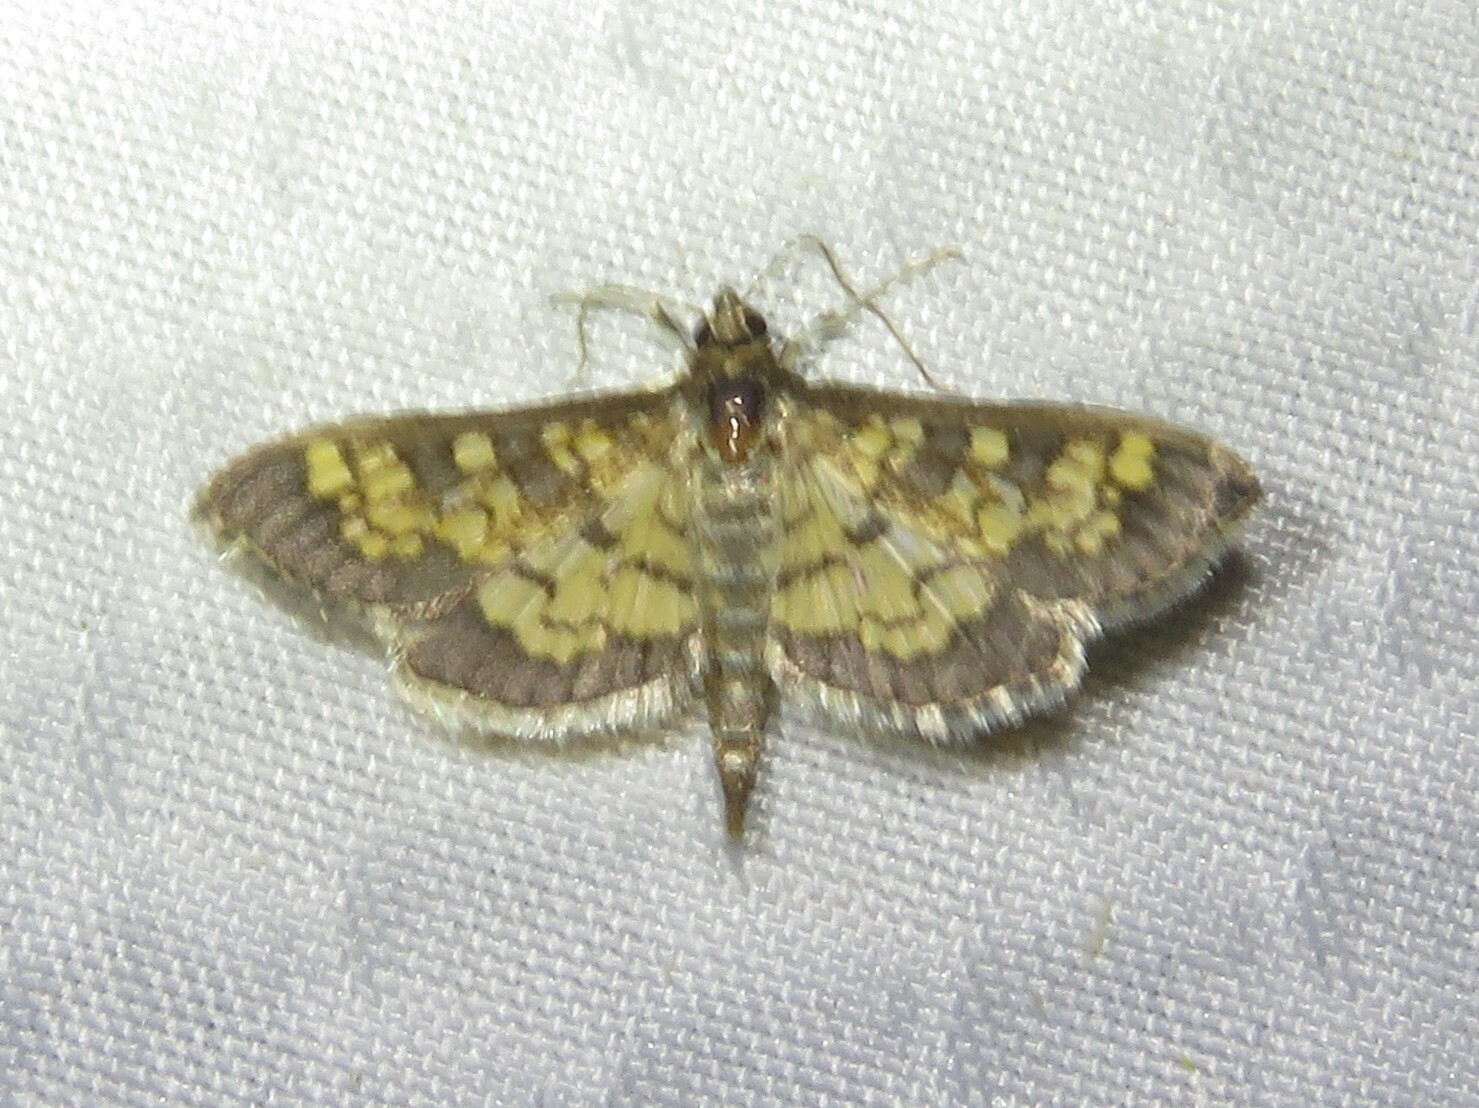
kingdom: Animalia
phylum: Arthropoda
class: Insecta
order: Lepidoptera
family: Crambidae
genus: Epipagis
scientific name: Epipagis adipaloides
